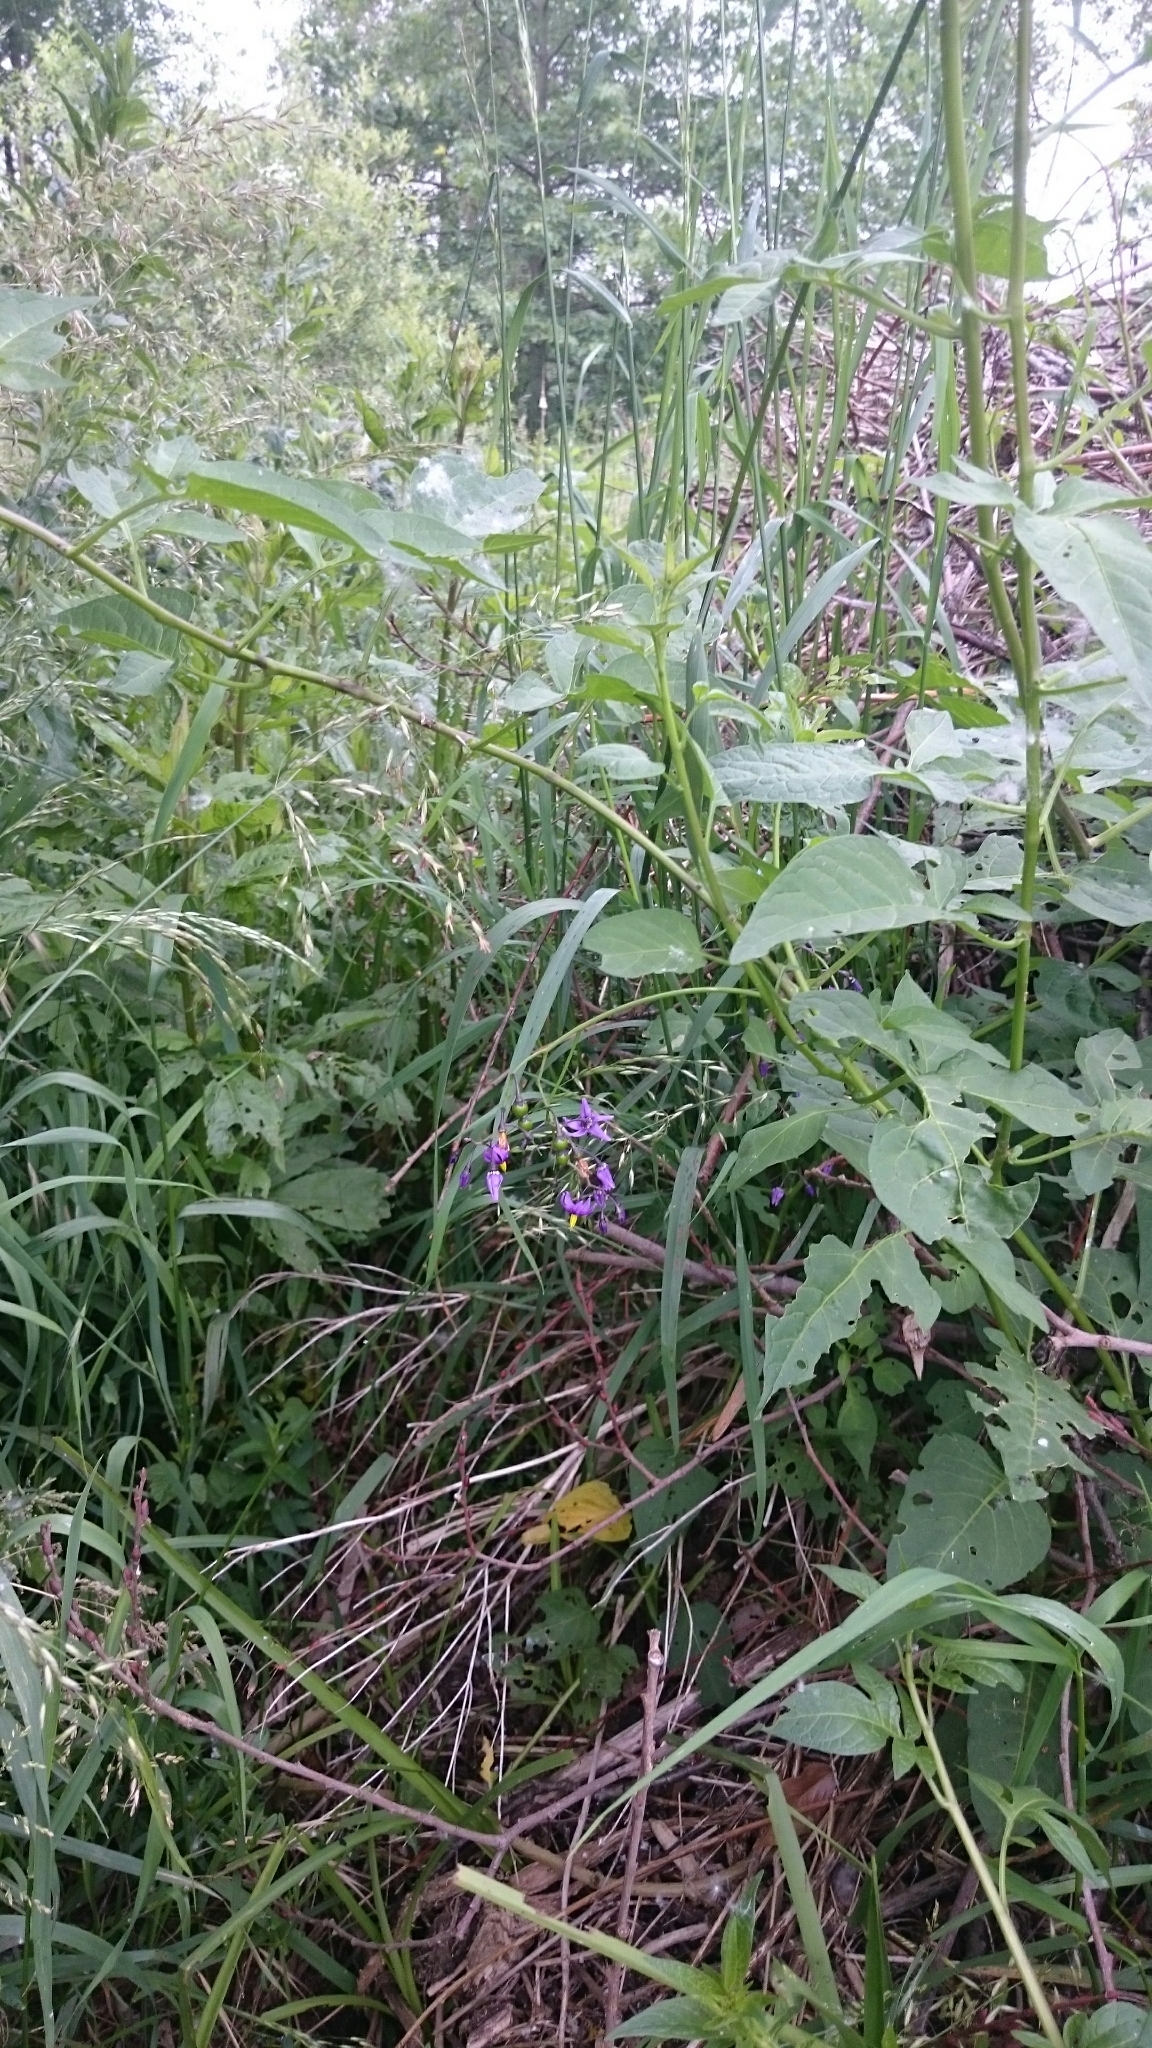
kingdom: Plantae
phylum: Tracheophyta
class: Magnoliopsida
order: Solanales
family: Solanaceae
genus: Solanum
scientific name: Solanum dulcamara
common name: Climbing nightshade
